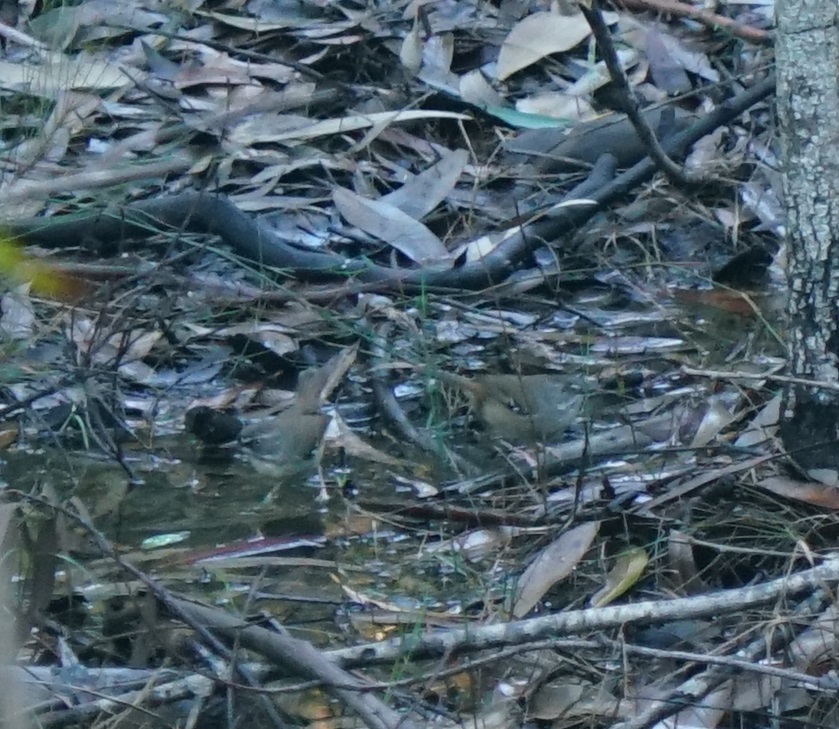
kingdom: Animalia
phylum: Chordata
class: Aves
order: Passeriformes
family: Acanthizidae
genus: Sericornis
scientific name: Sericornis frontalis
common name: White-browed scrubwren
